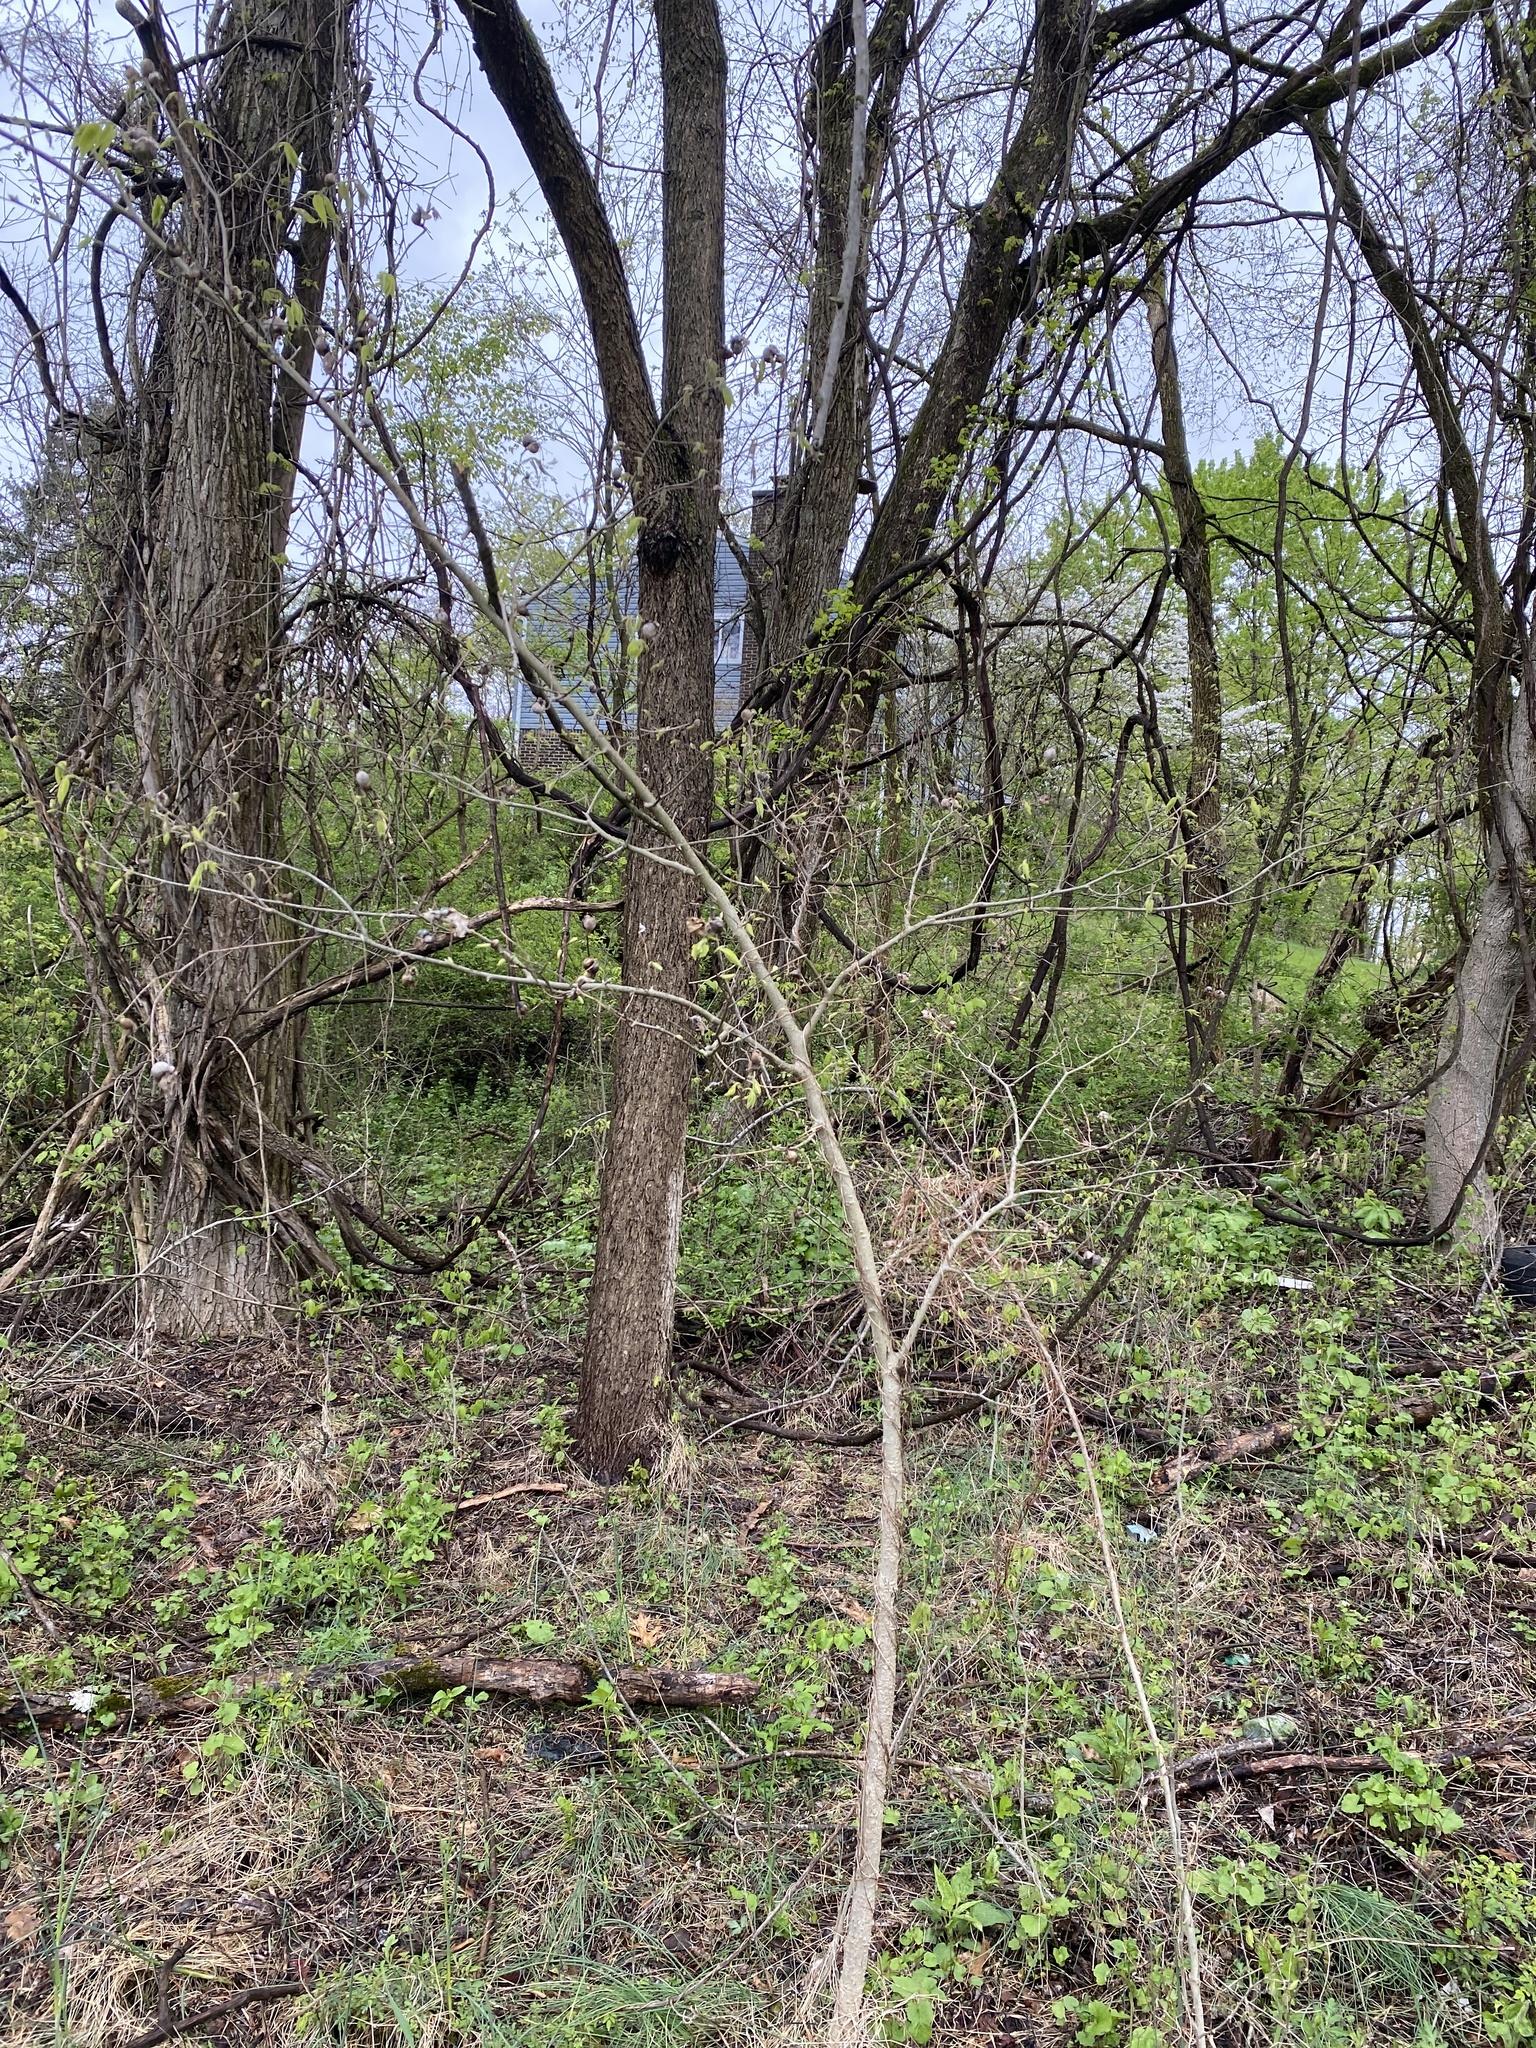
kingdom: Animalia
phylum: Arthropoda
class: Insecta
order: Hemiptera
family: Aphalaridae
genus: Pachypsylla
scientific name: Pachypsylla venusta
